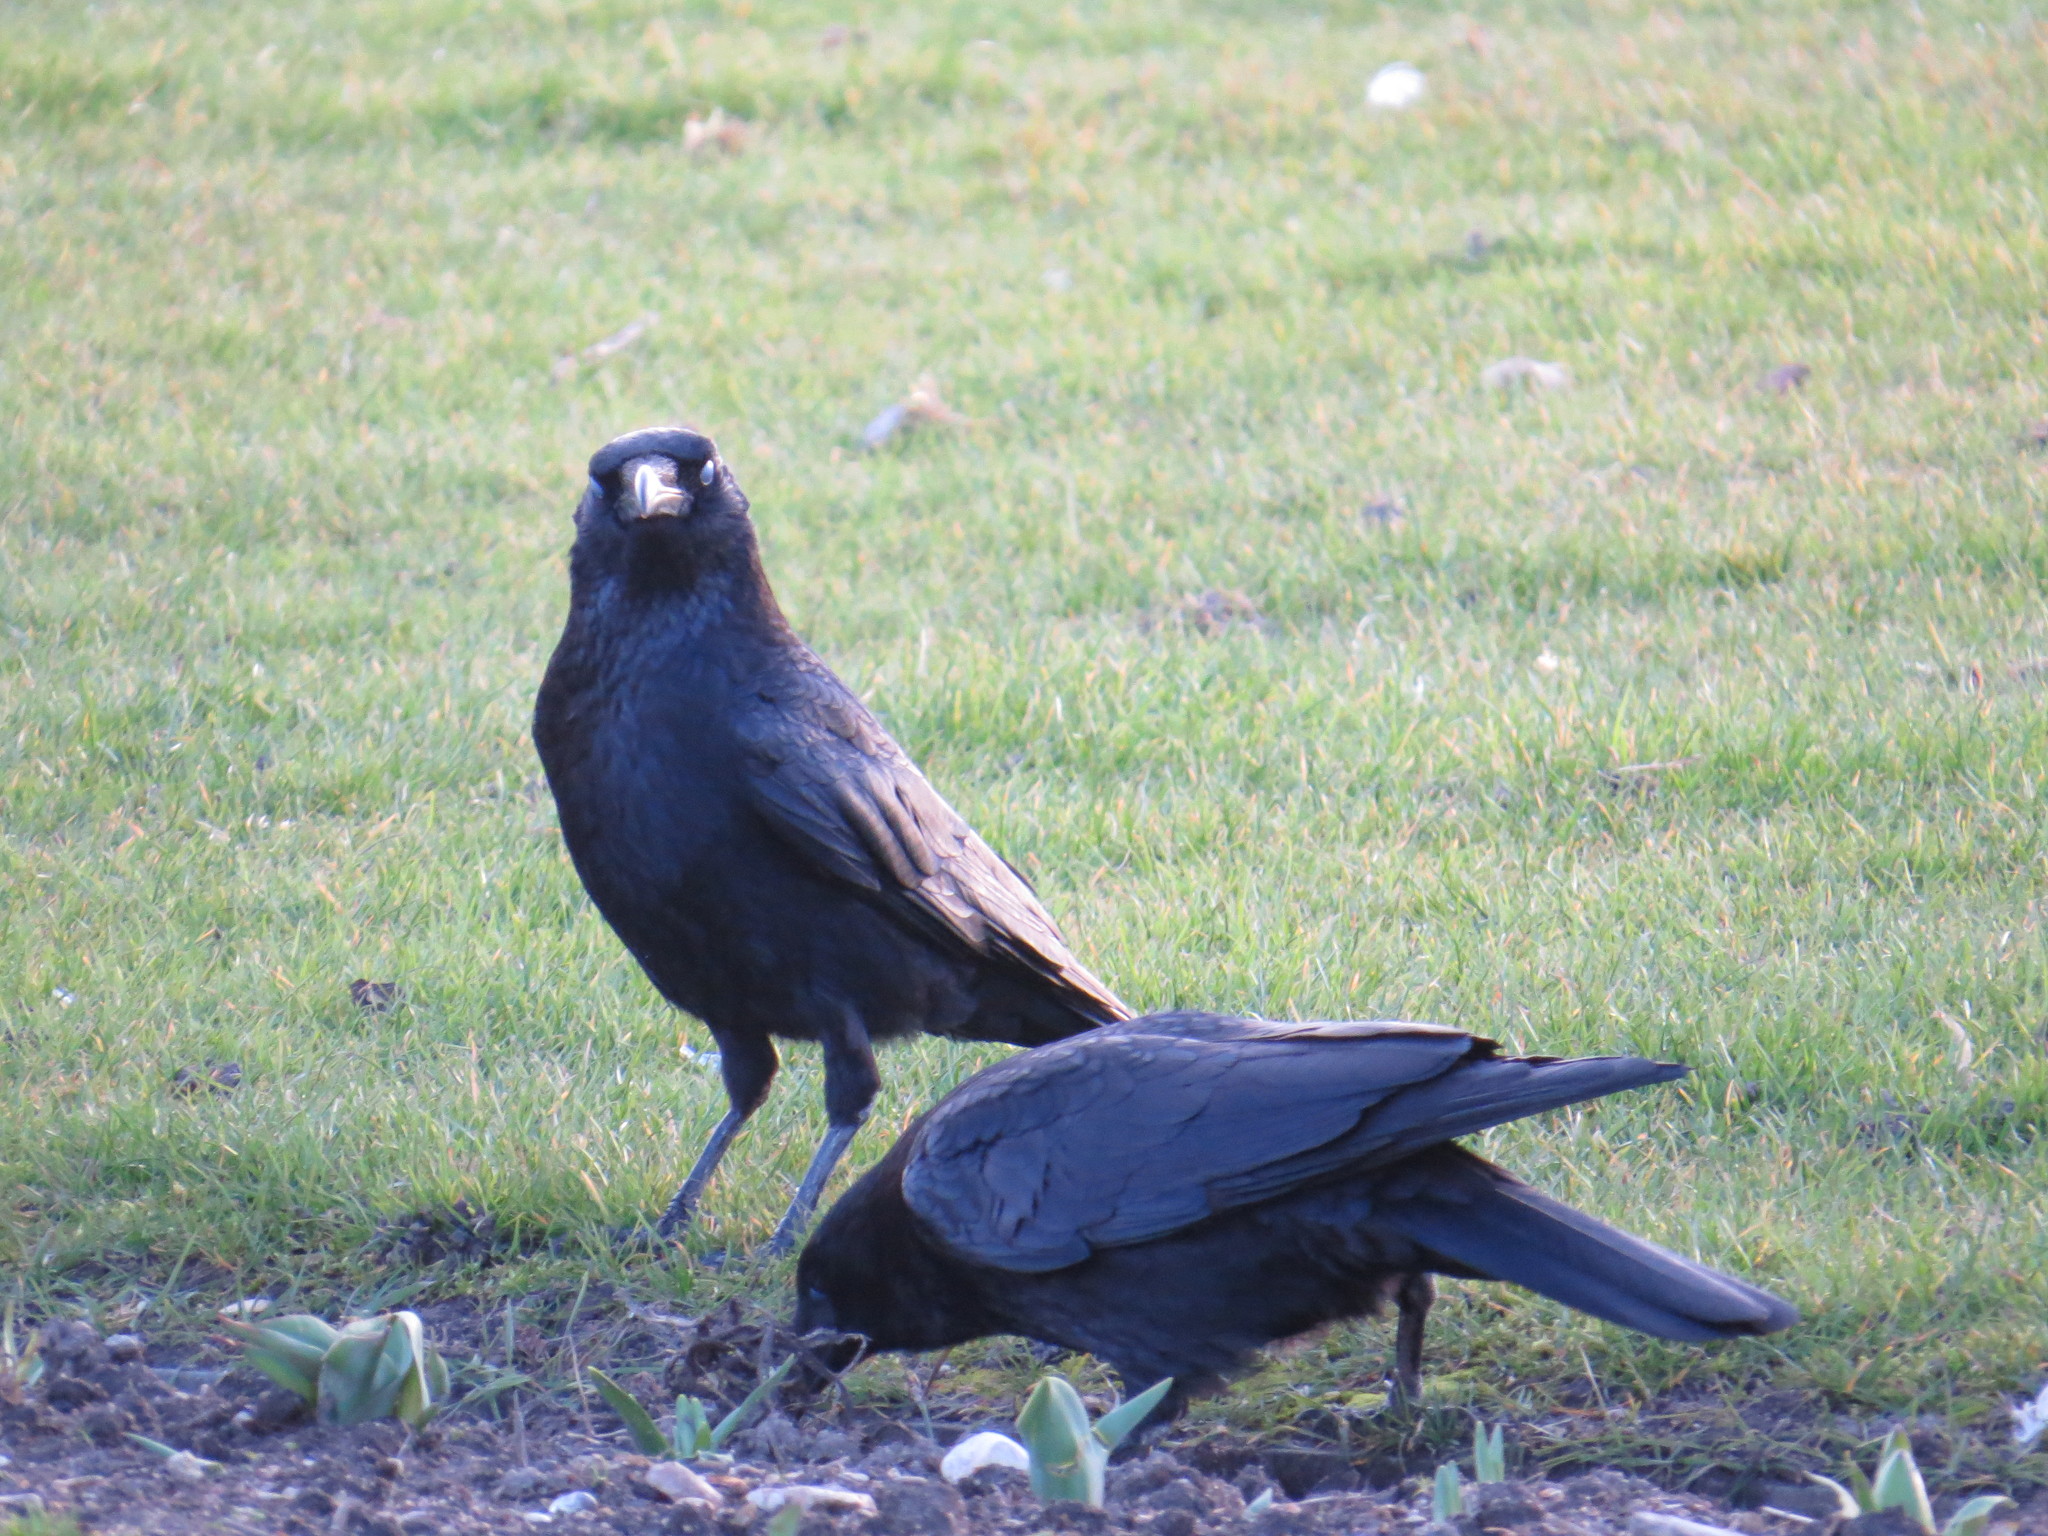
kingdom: Animalia
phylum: Chordata
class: Aves
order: Passeriformes
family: Corvidae
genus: Corvus
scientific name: Corvus corone
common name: Carrion crow
